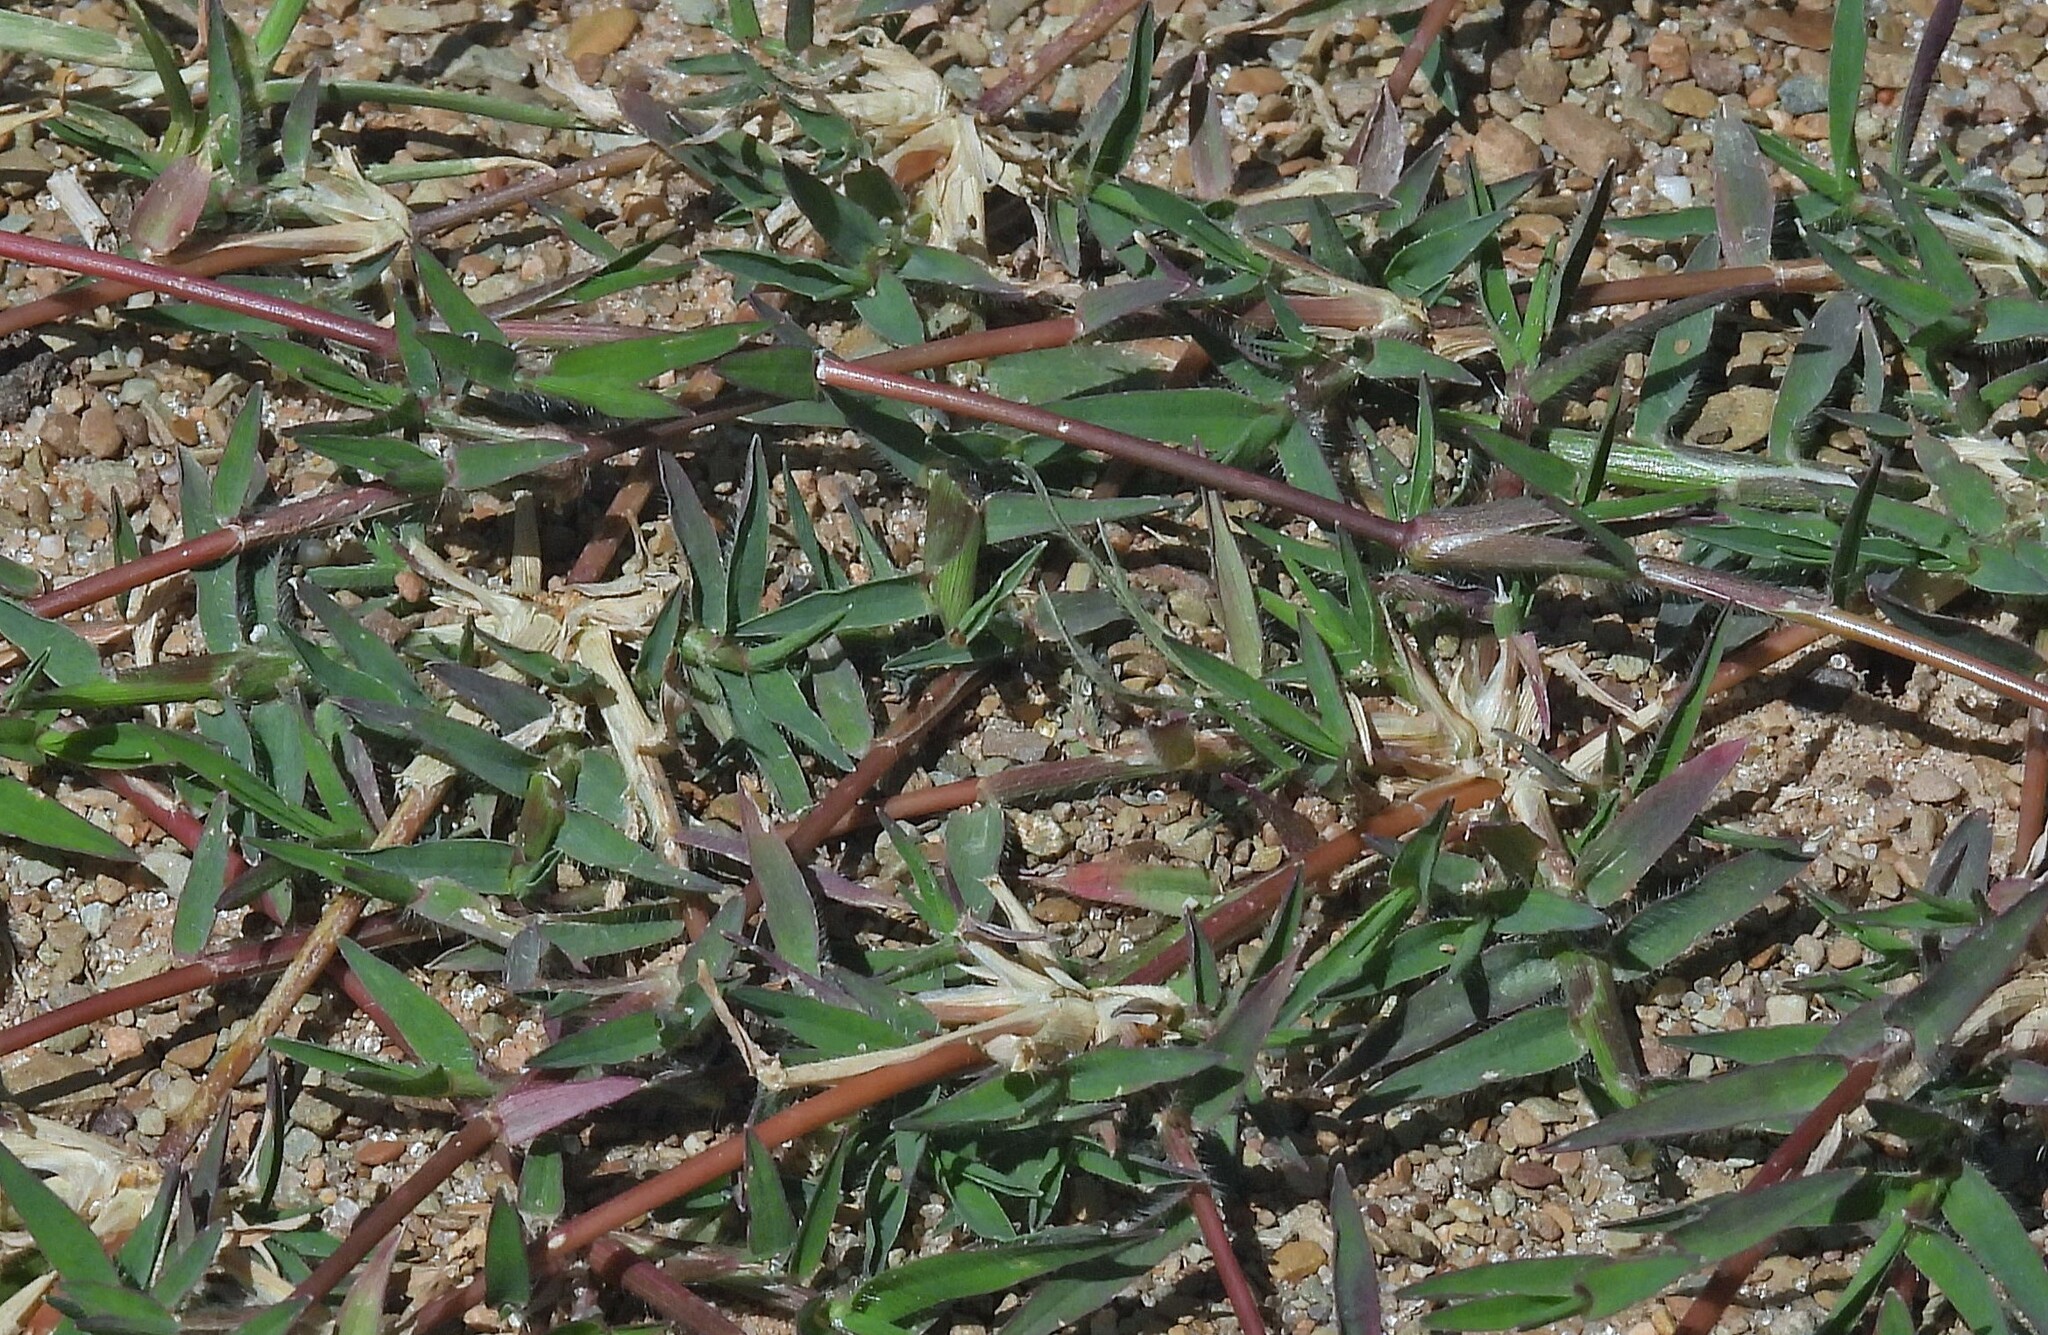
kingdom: Plantae
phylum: Tracheophyta
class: Liliopsida
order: Poales
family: Poaceae
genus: Digitaria
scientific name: Digitaria sanguinalis
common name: Hairy crabgrass
